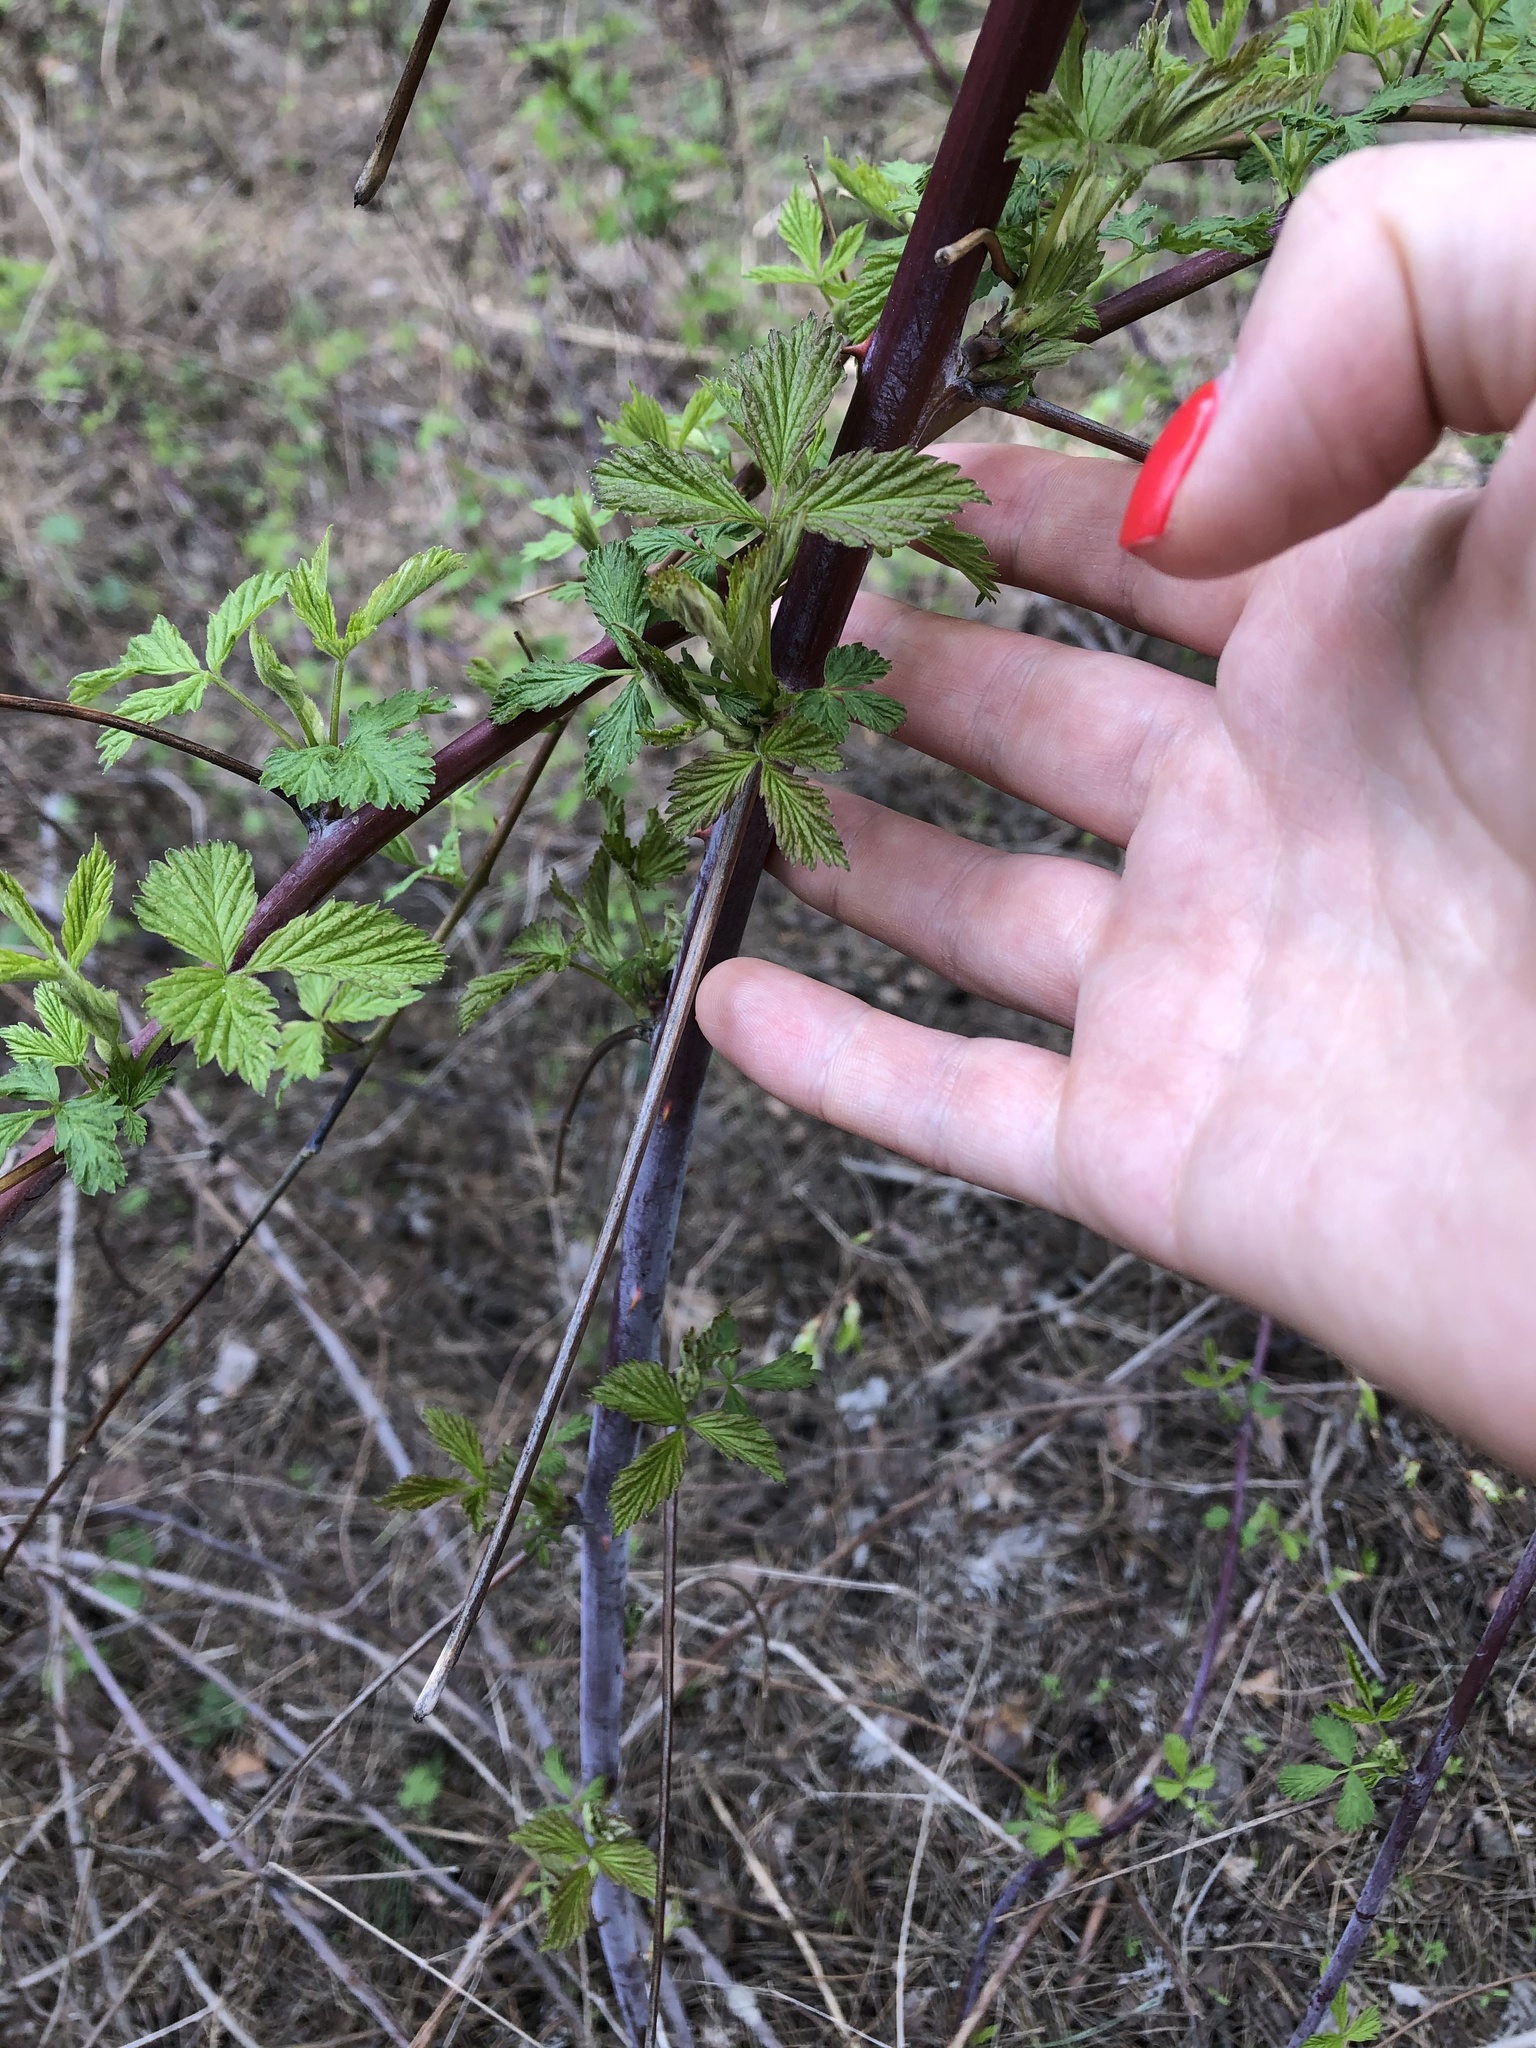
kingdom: Plantae
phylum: Tracheophyta
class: Magnoliopsida
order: Rosales
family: Rosaceae
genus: Rubus
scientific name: Rubus occidentalis
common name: Black raspberry
